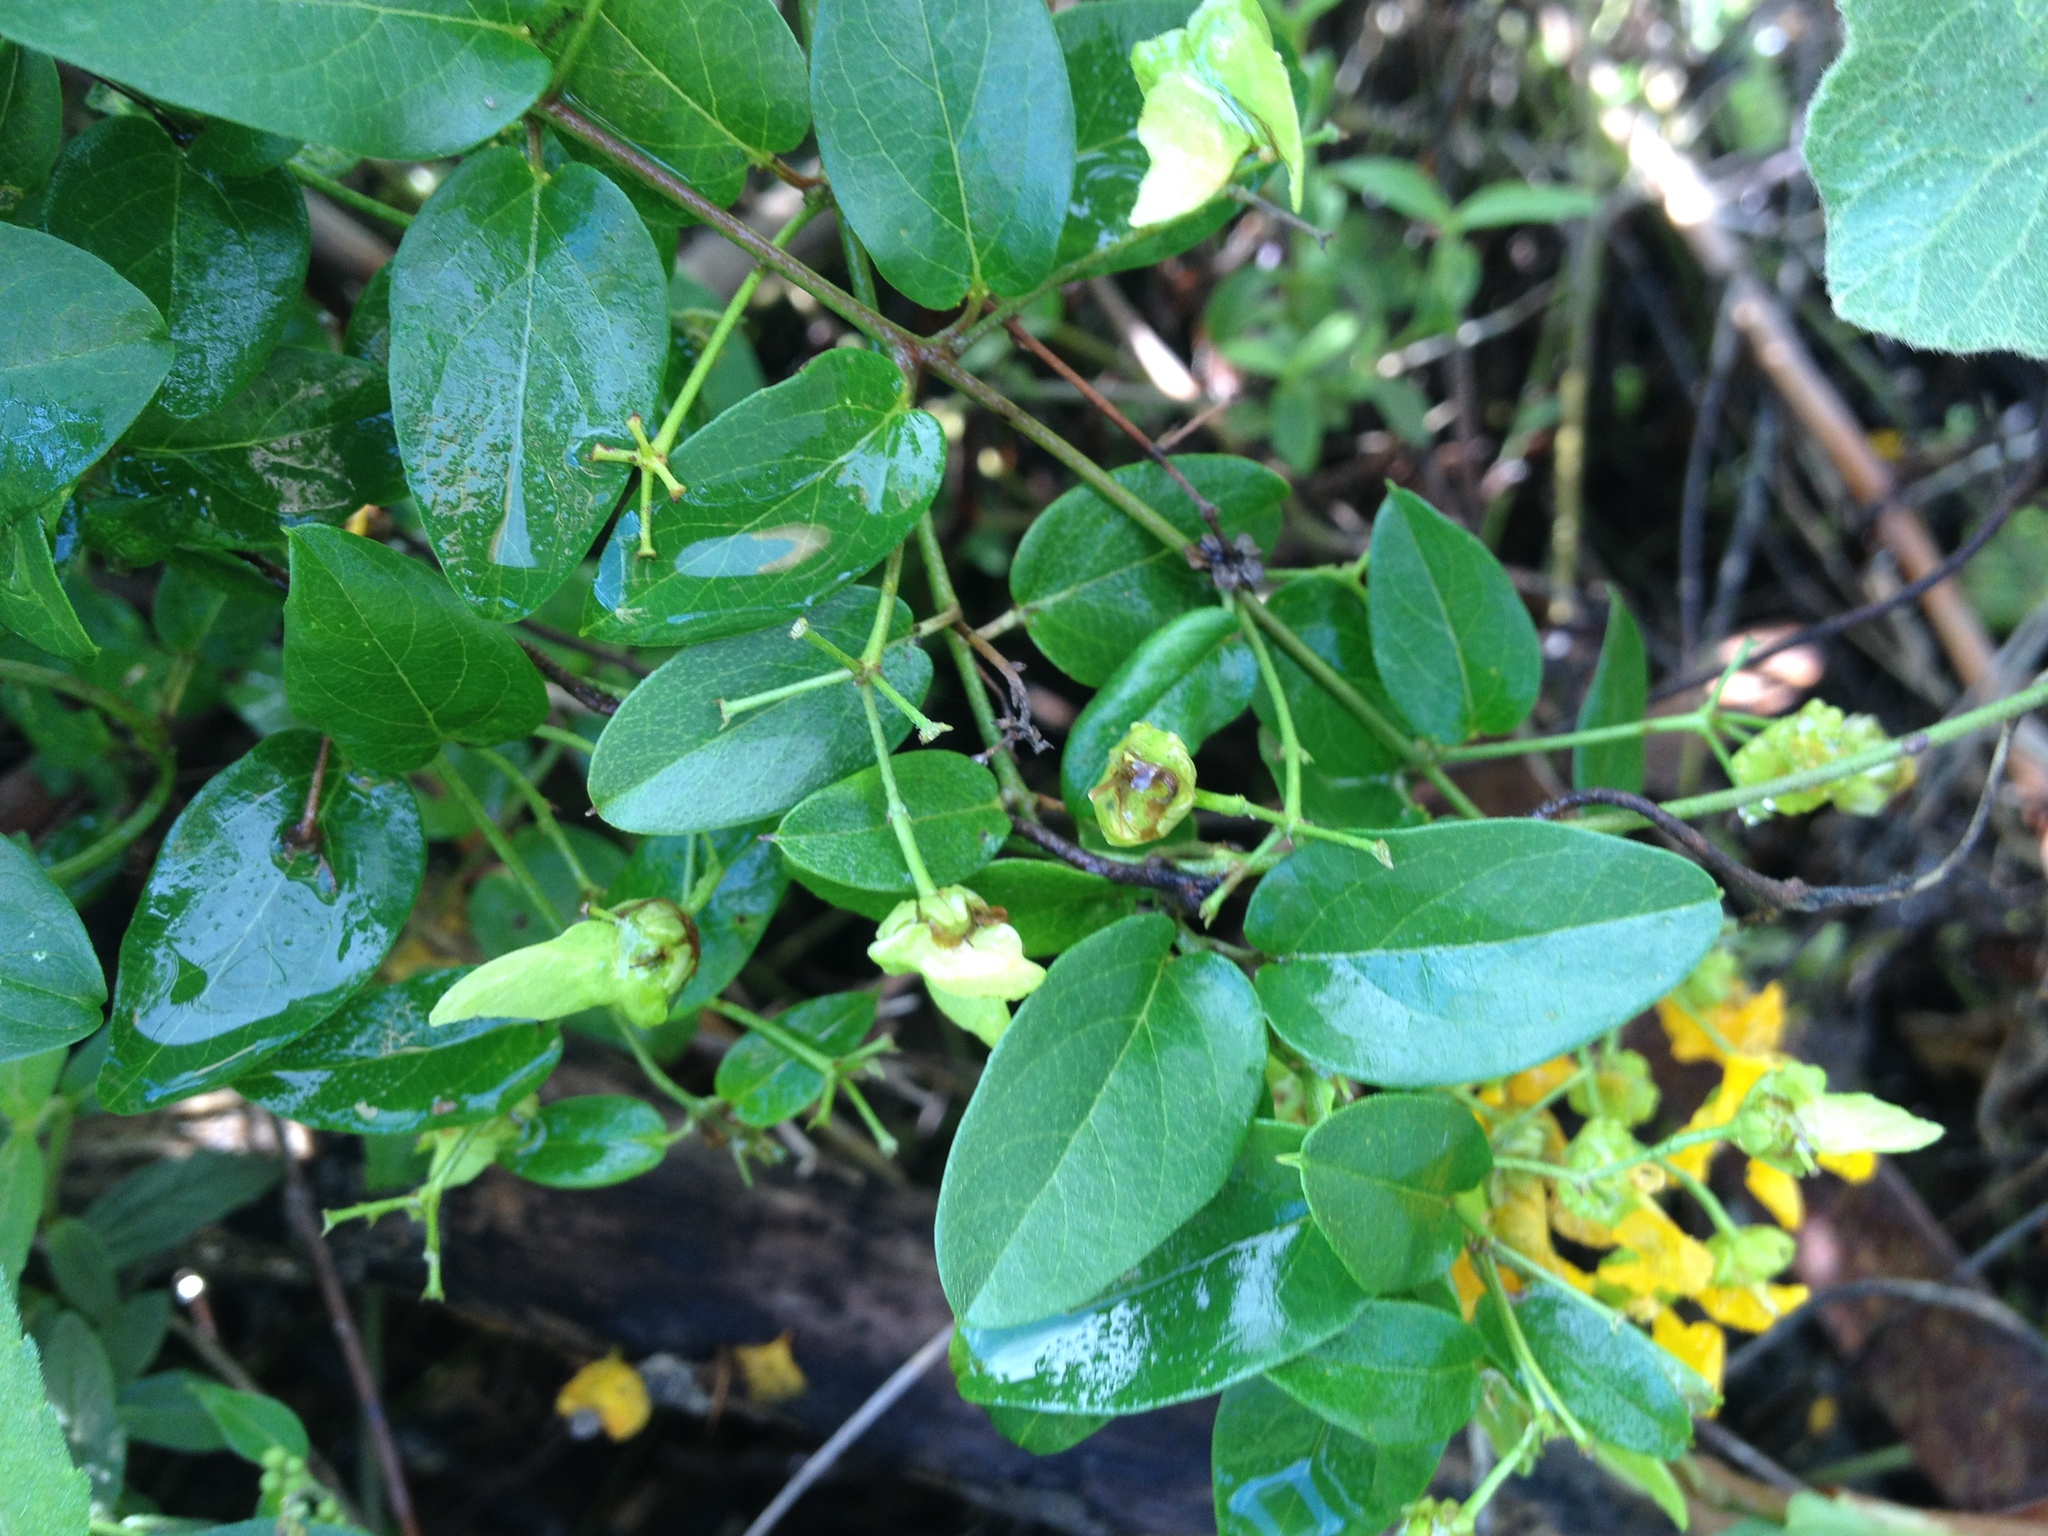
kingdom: Plantae
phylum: Tracheophyta
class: Magnoliopsida
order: Malpighiales
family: Malpighiaceae
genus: Janusia
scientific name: Janusia guaranitica
